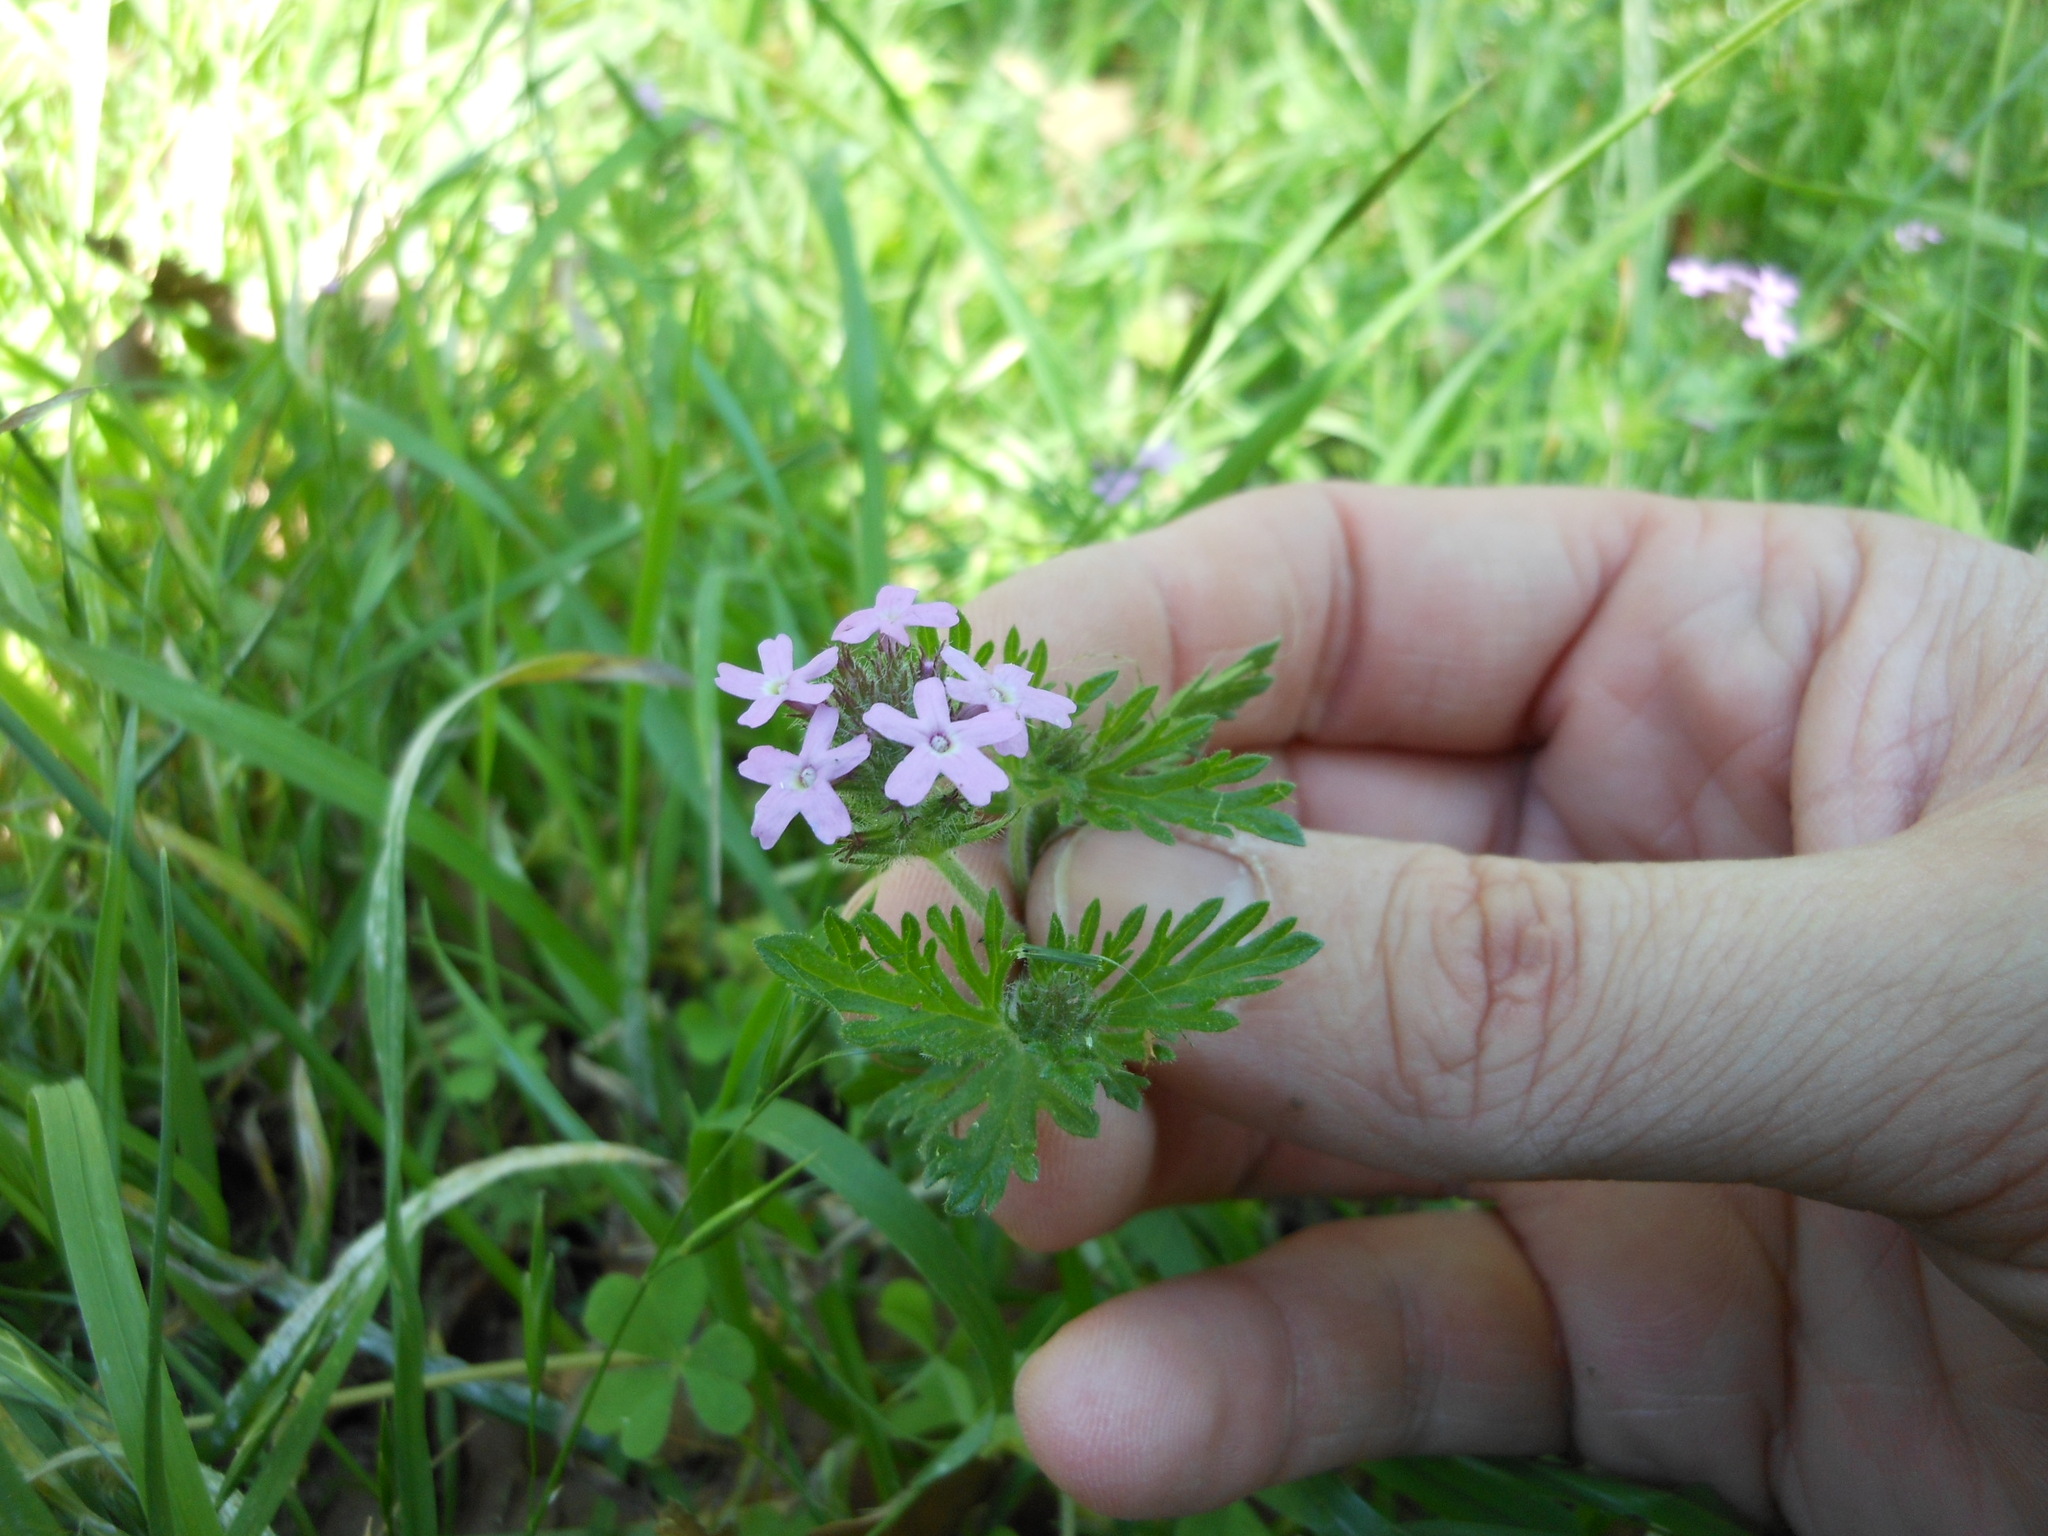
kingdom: Plantae
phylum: Tracheophyta
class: Magnoliopsida
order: Lamiales
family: Verbenaceae
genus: Verbena
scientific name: Verbena bipinnatifida
